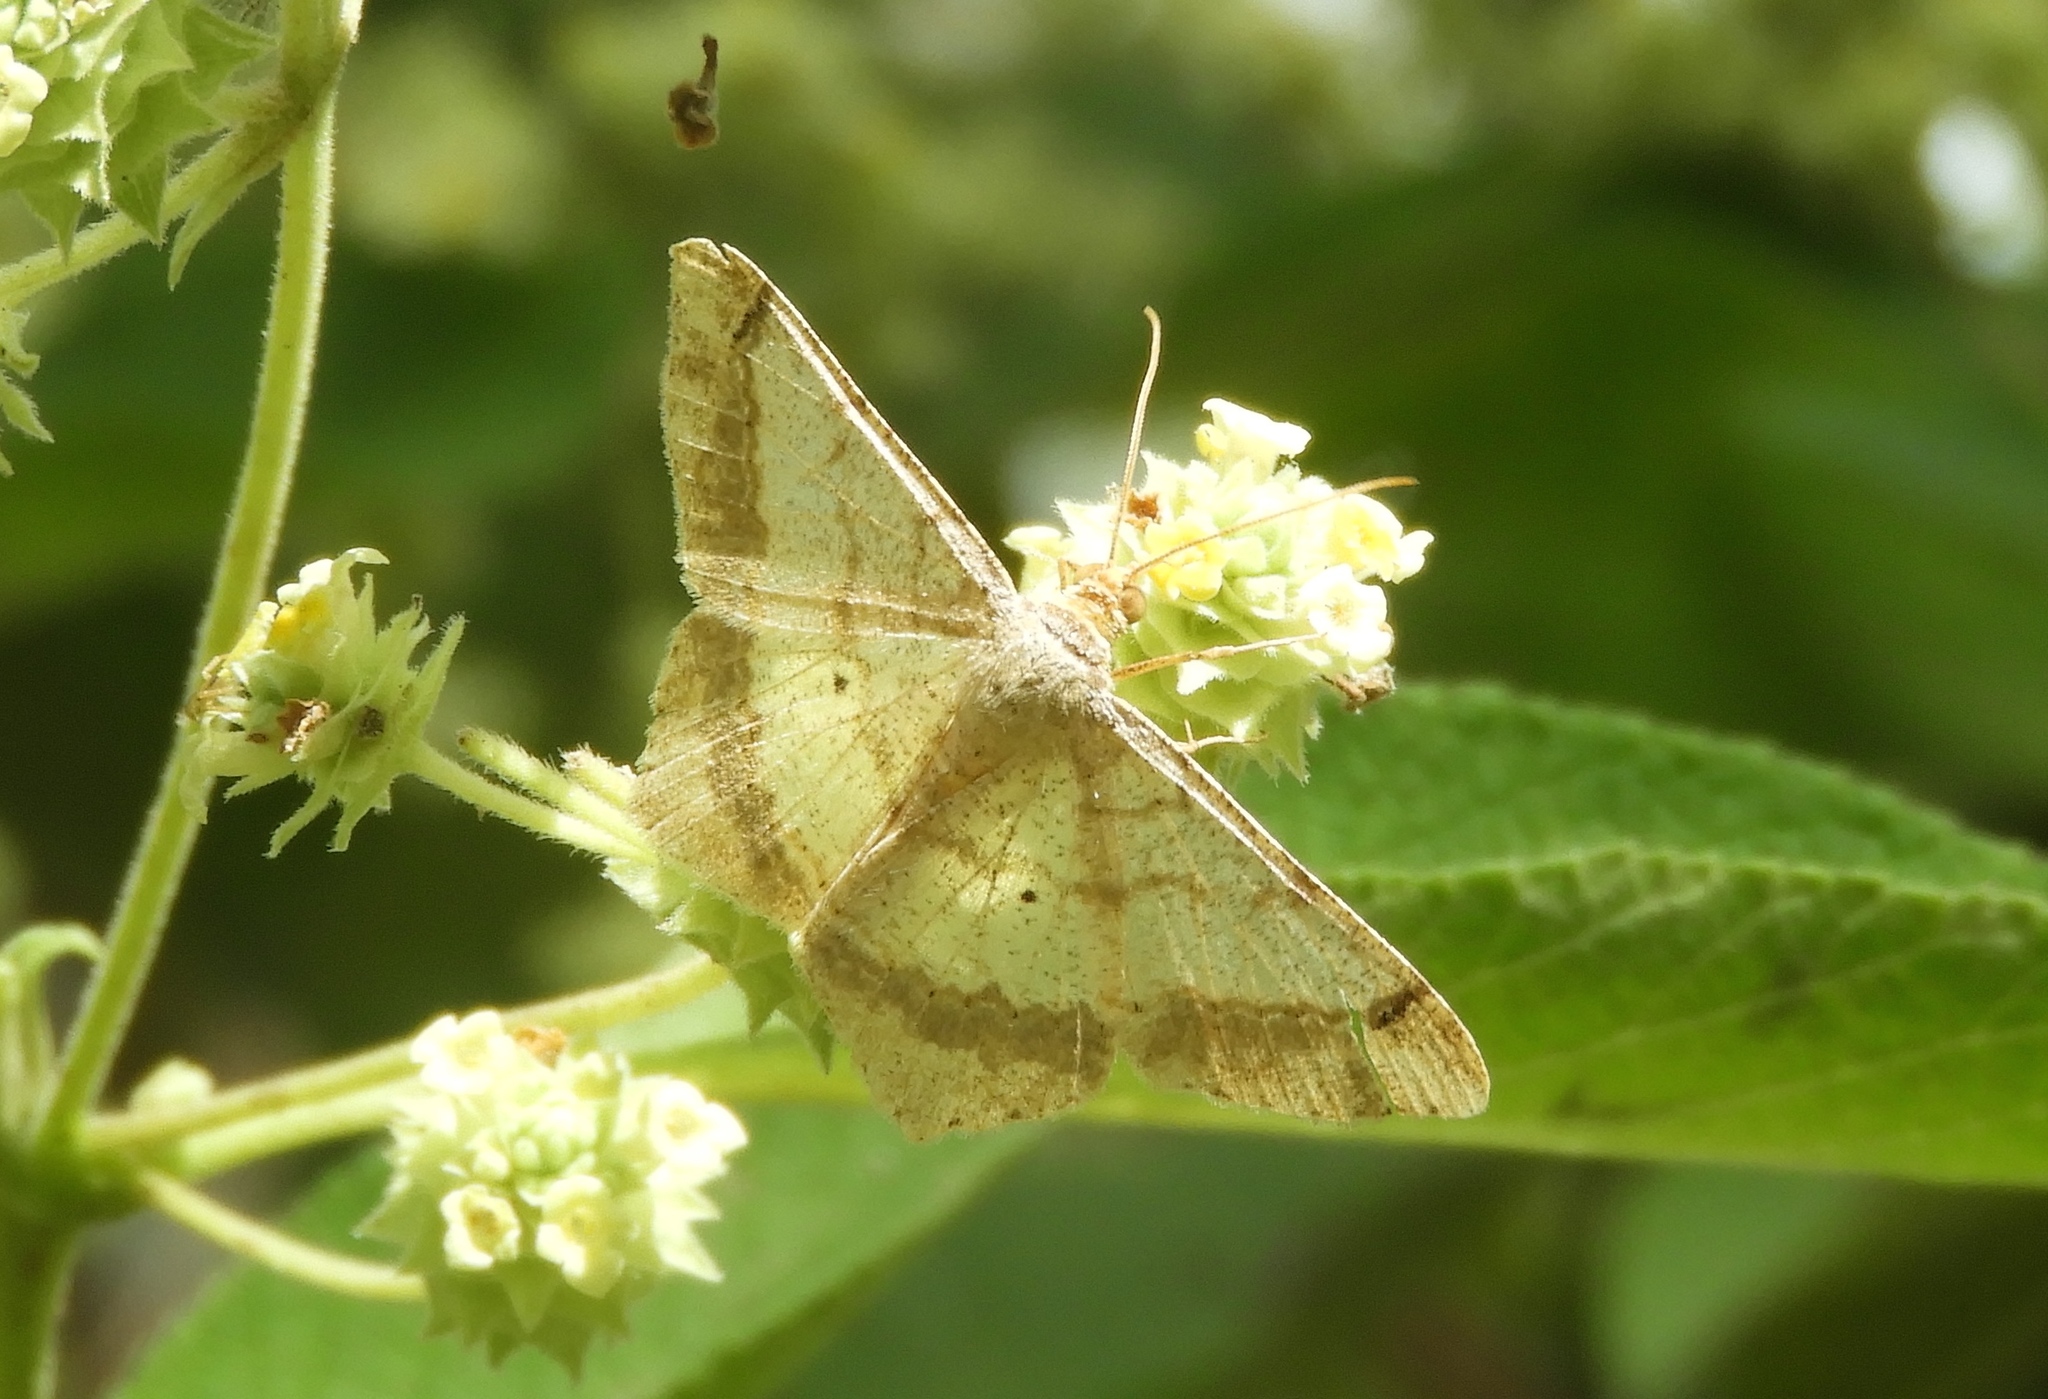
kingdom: Animalia
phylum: Arthropoda
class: Insecta
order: Lepidoptera
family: Geometridae
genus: Macaria
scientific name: Macaria
